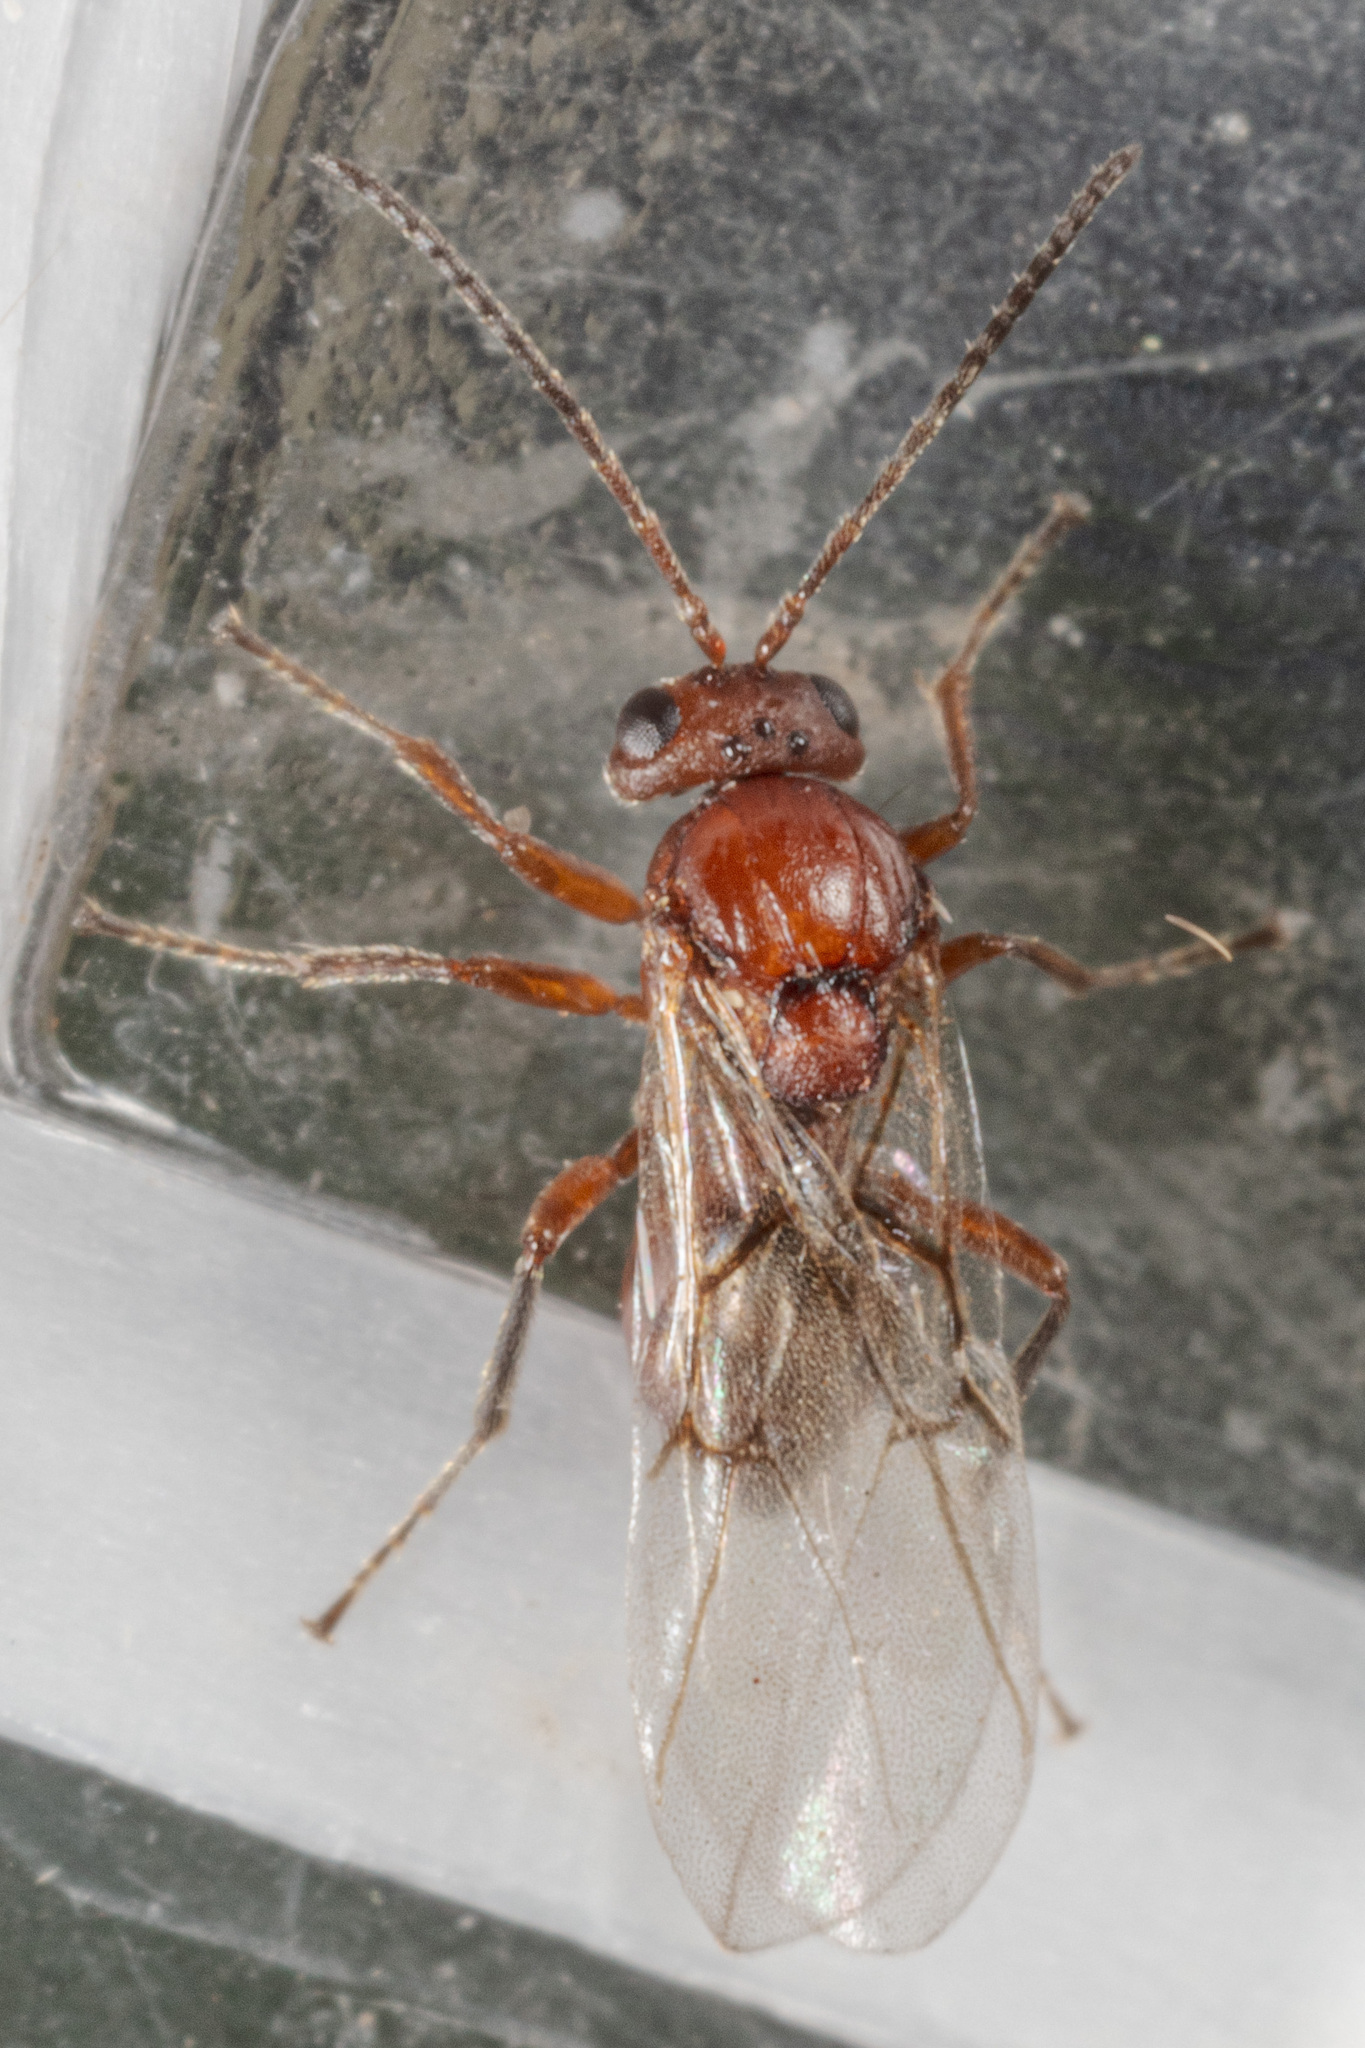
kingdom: Animalia
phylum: Arthropoda
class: Insecta
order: Hymenoptera
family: Cynipidae
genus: Callirhytis
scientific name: Callirhytis
